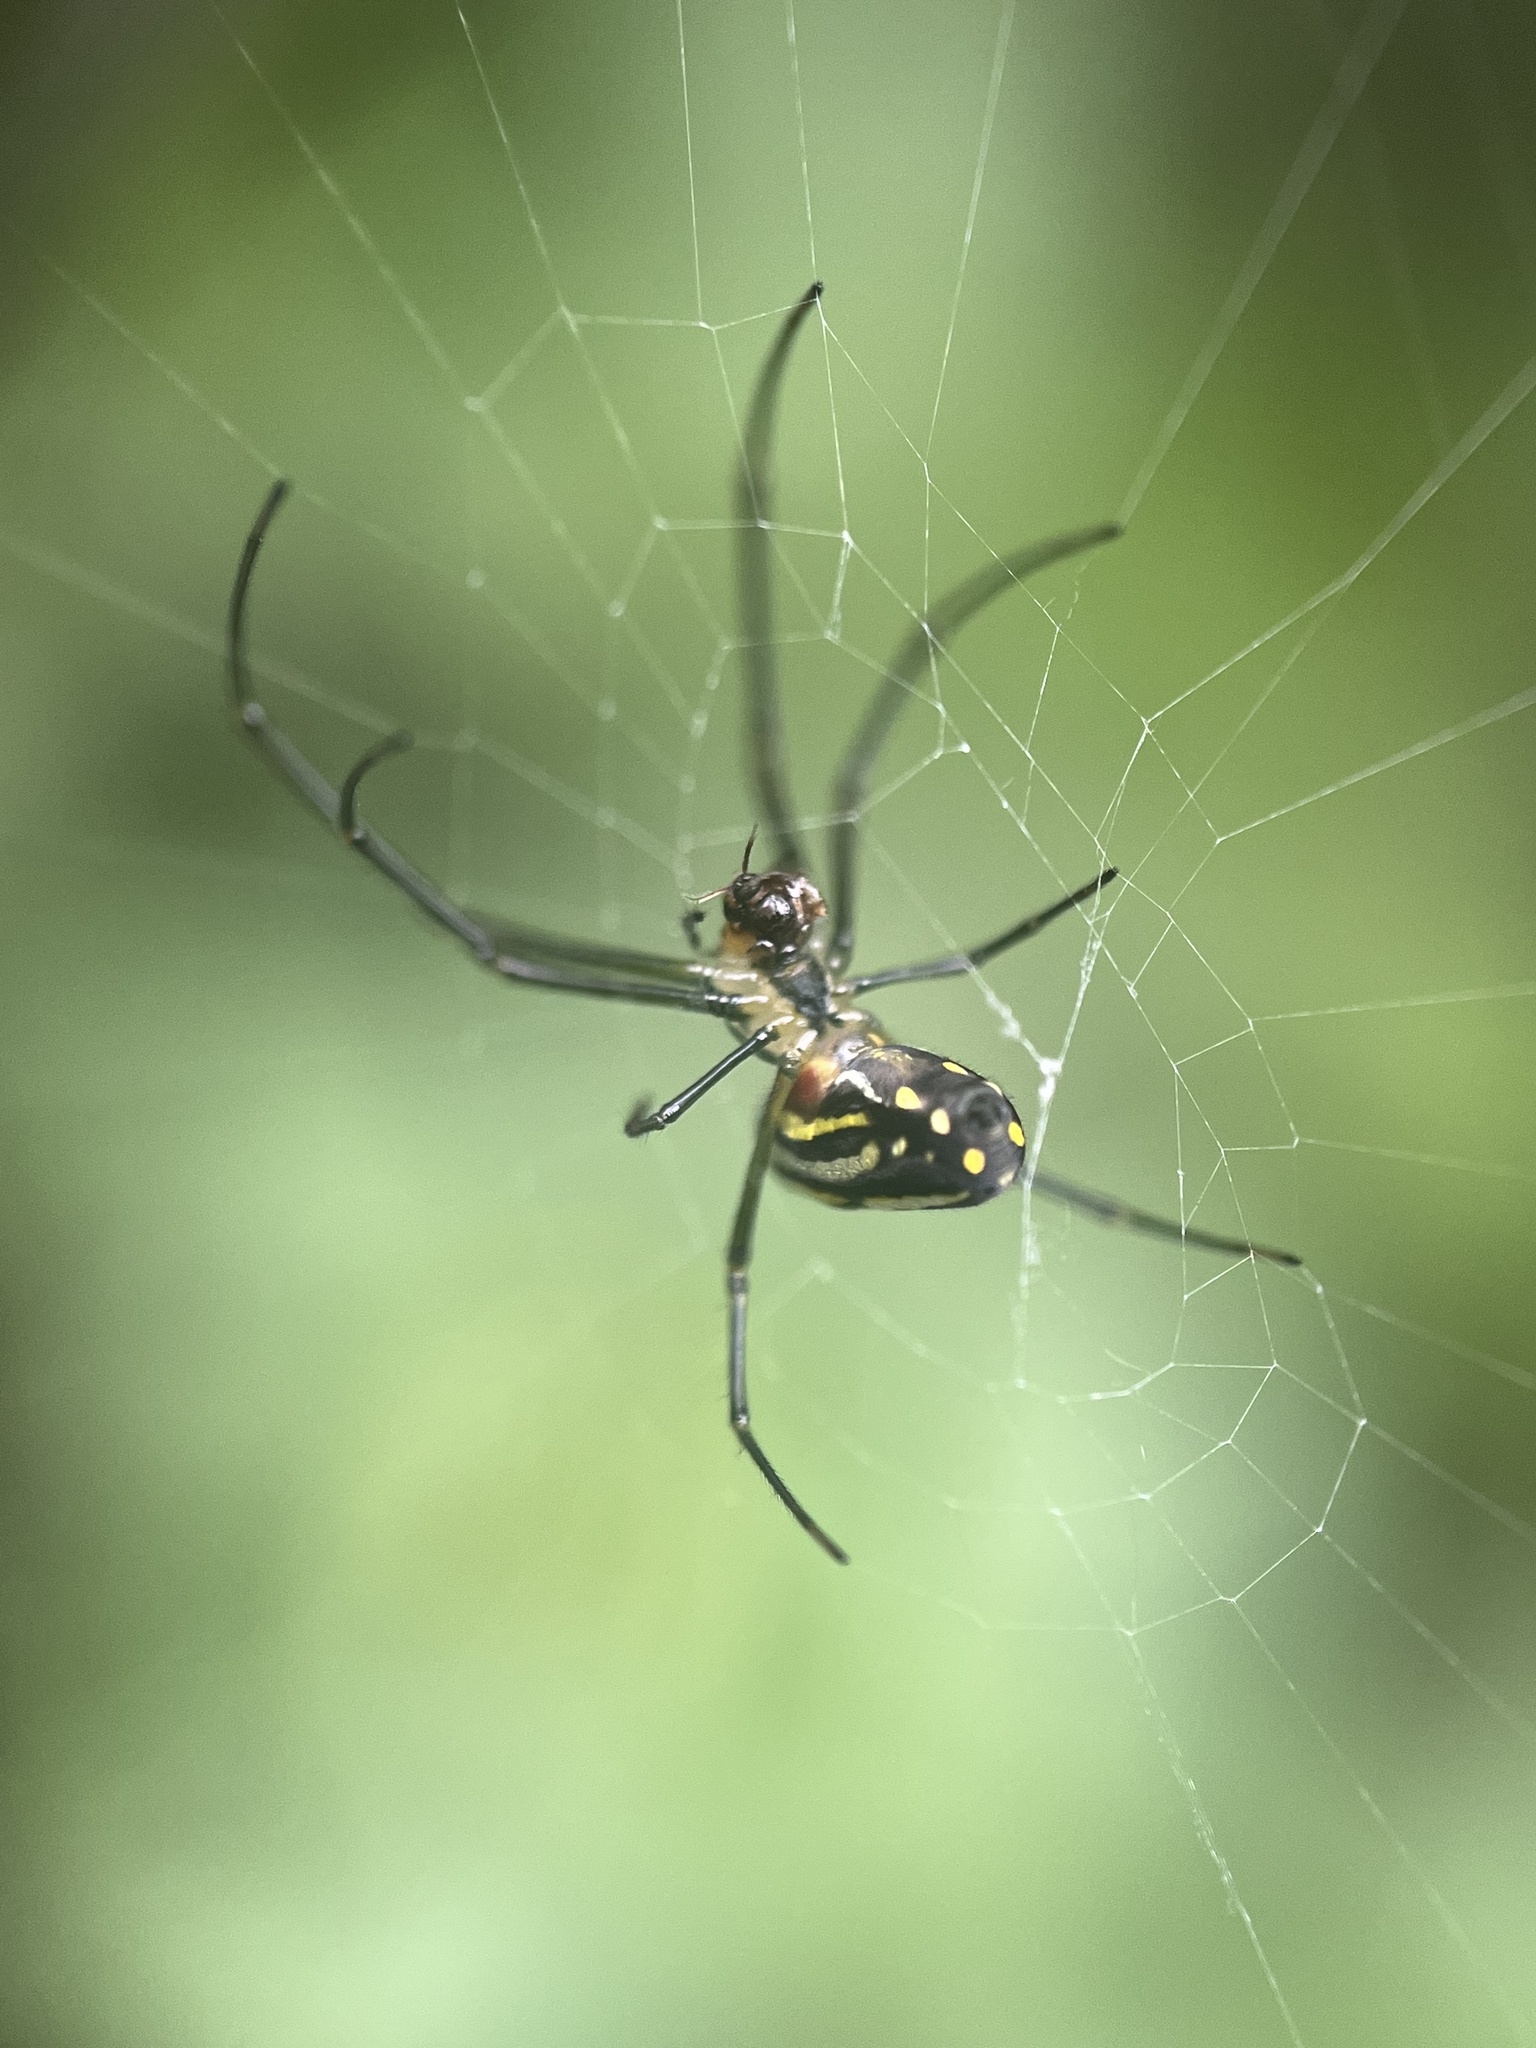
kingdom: Animalia
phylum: Arthropoda
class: Arachnida
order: Araneae
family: Tetragnathidae
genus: Leucauge
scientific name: Leucauge argyra
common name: Longjawed orb weavers
